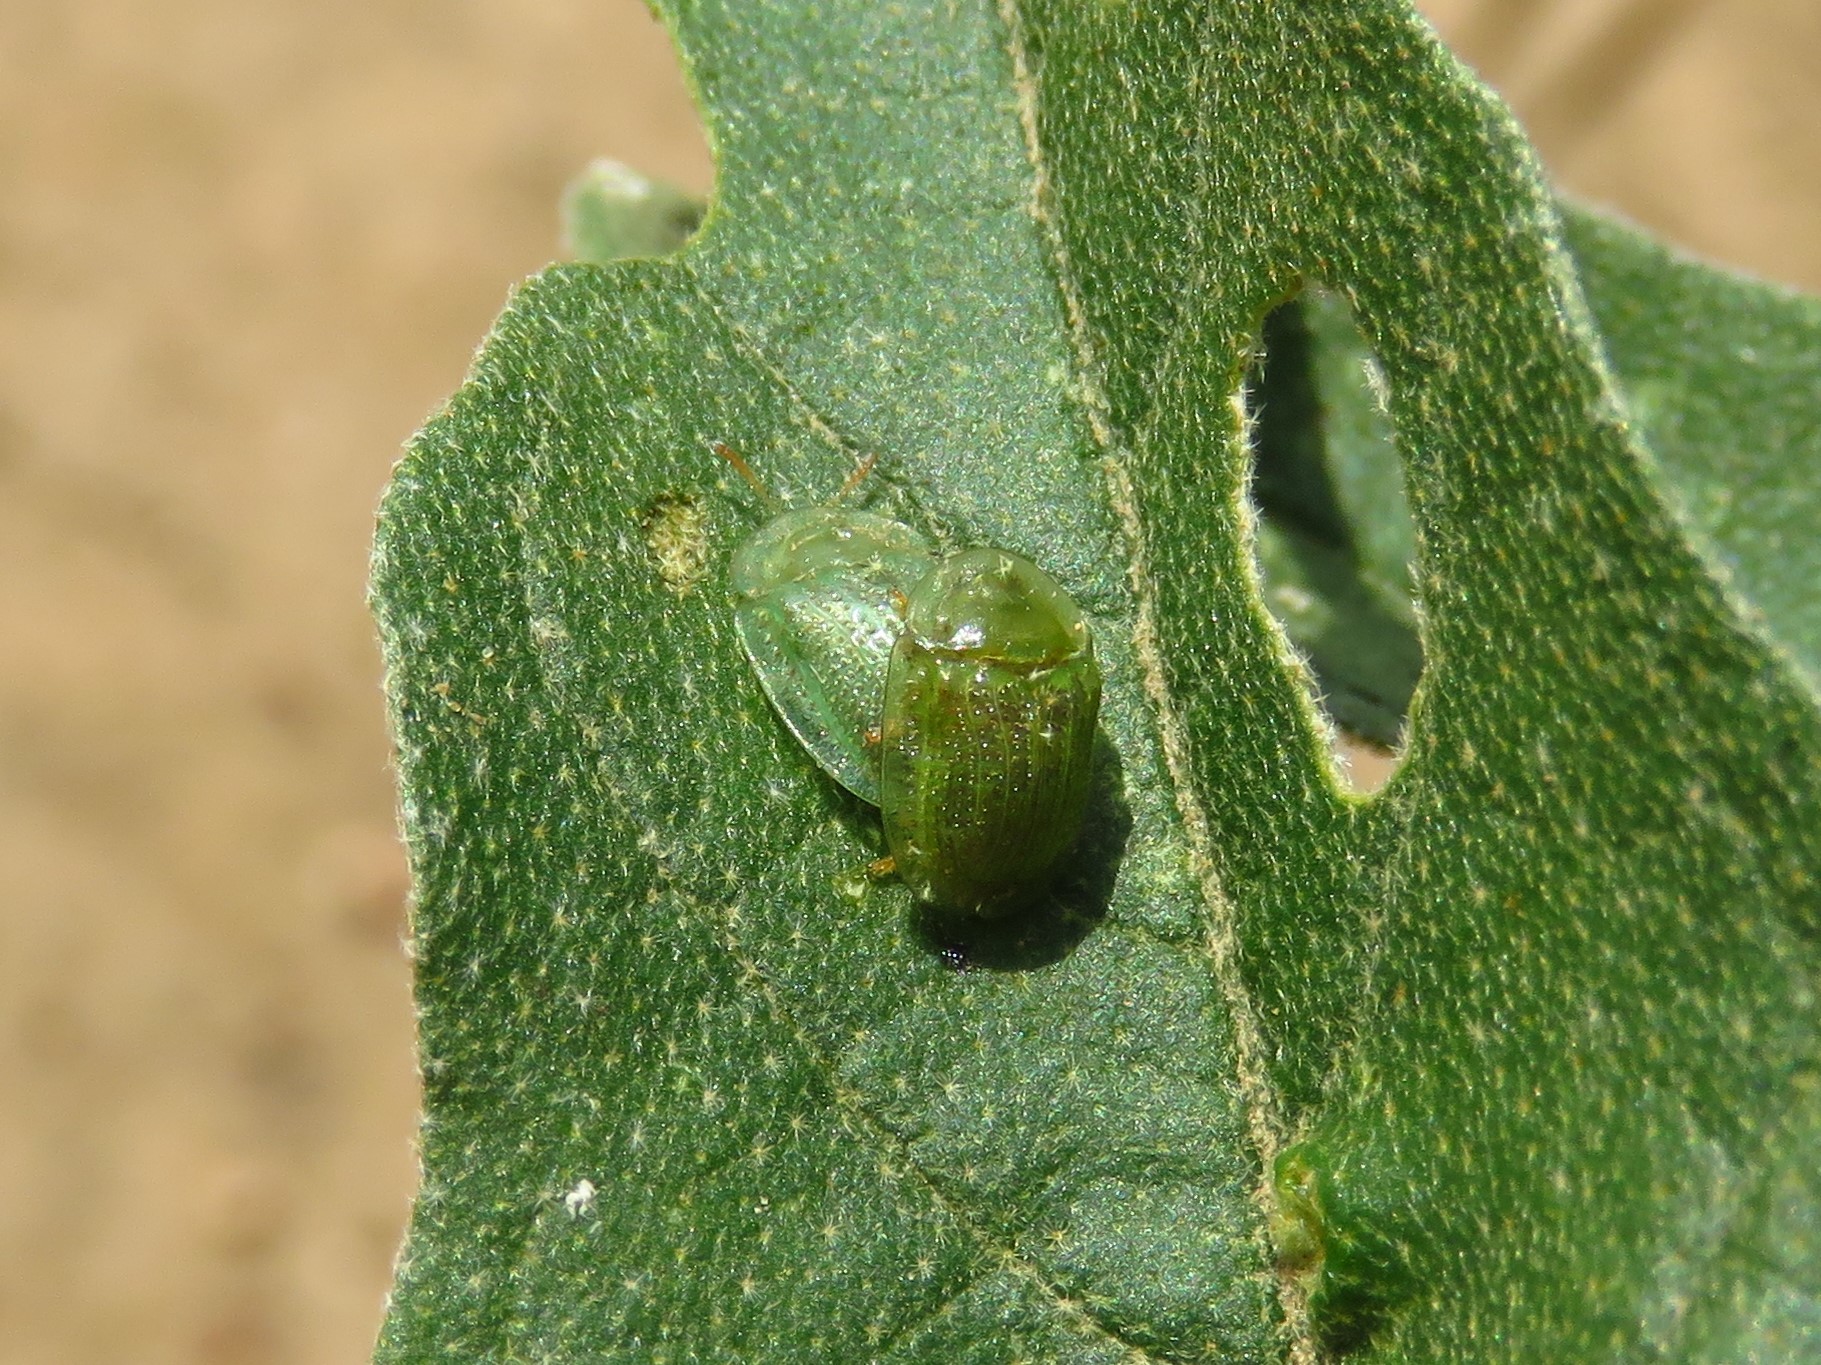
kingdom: Animalia
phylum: Arthropoda
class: Insecta
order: Coleoptera
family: Chrysomelidae
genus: Gratiana
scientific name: Gratiana pallidula
